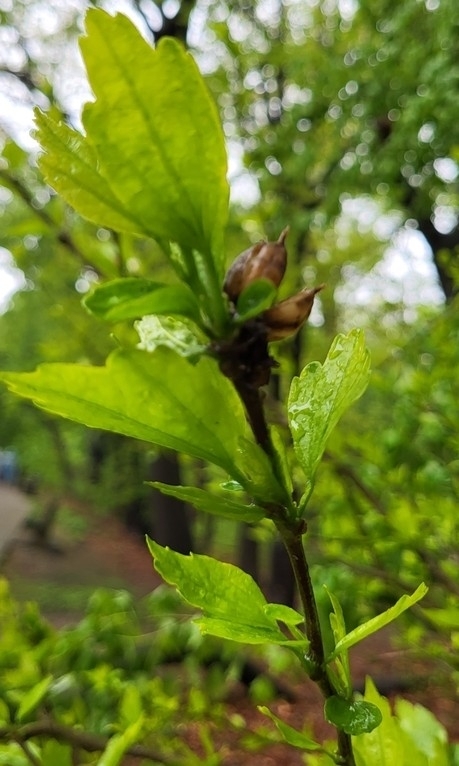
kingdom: Plantae
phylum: Tracheophyta
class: Magnoliopsida
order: Malvales
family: Malvaceae
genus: Hibiscus
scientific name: Hibiscus syriacus
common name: Syrian ketmia
